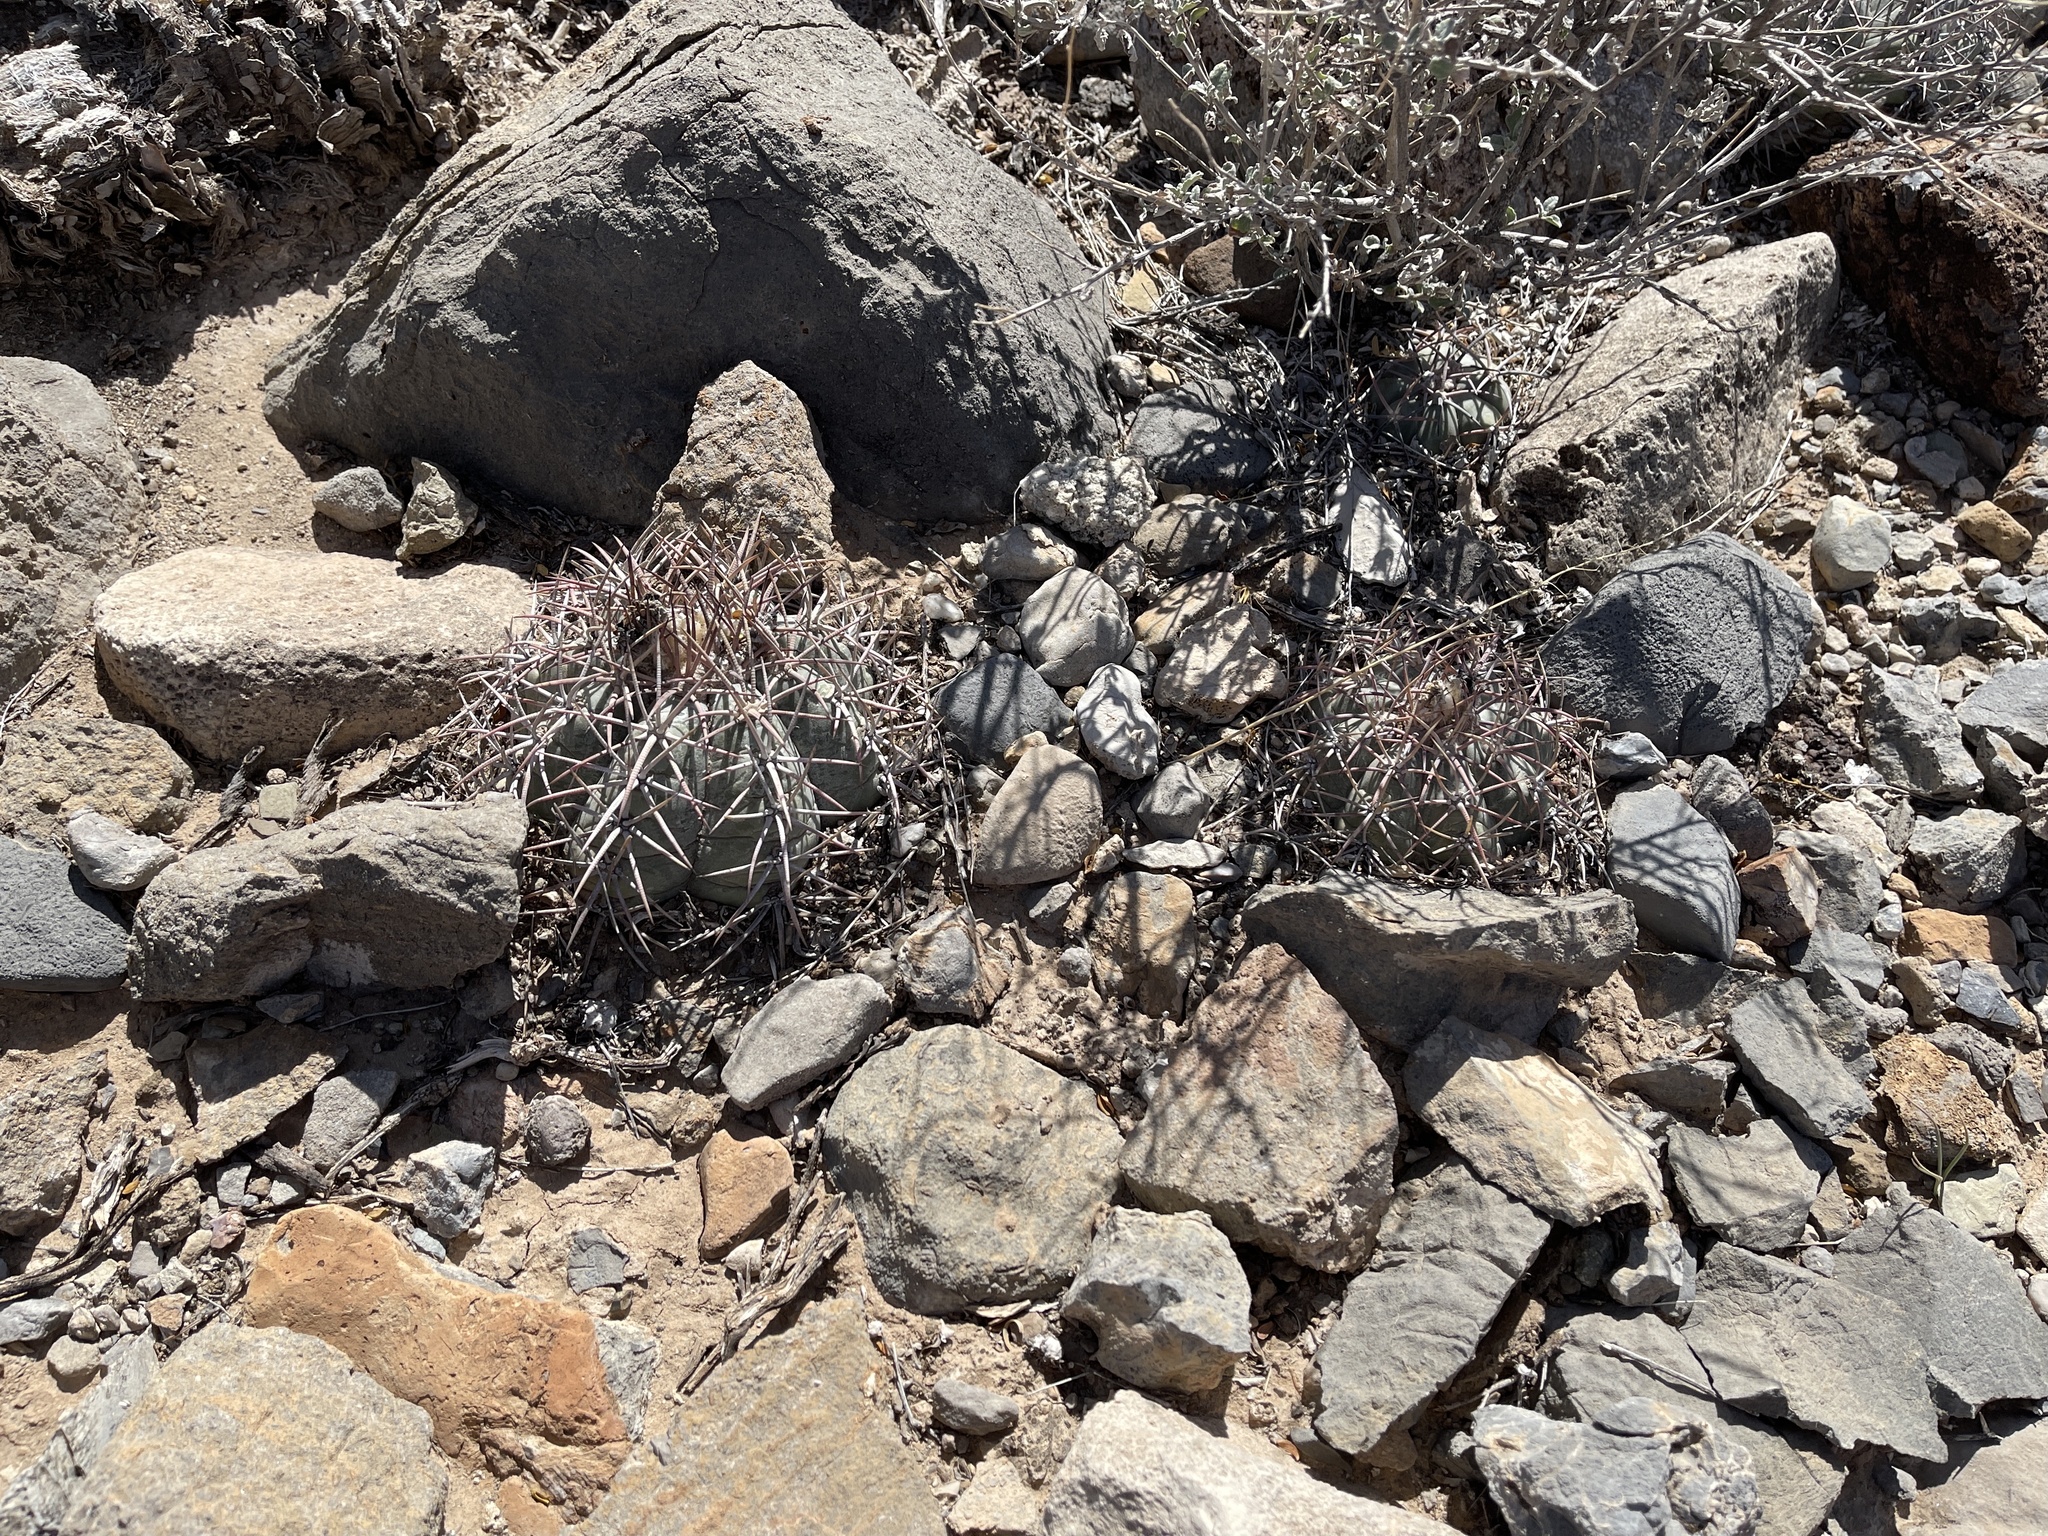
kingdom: Plantae
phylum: Tracheophyta
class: Magnoliopsida
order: Caryophyllales
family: Cactaceae
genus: Echinocactus
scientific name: Echinocactus horizonthalonius
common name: Devilshead
